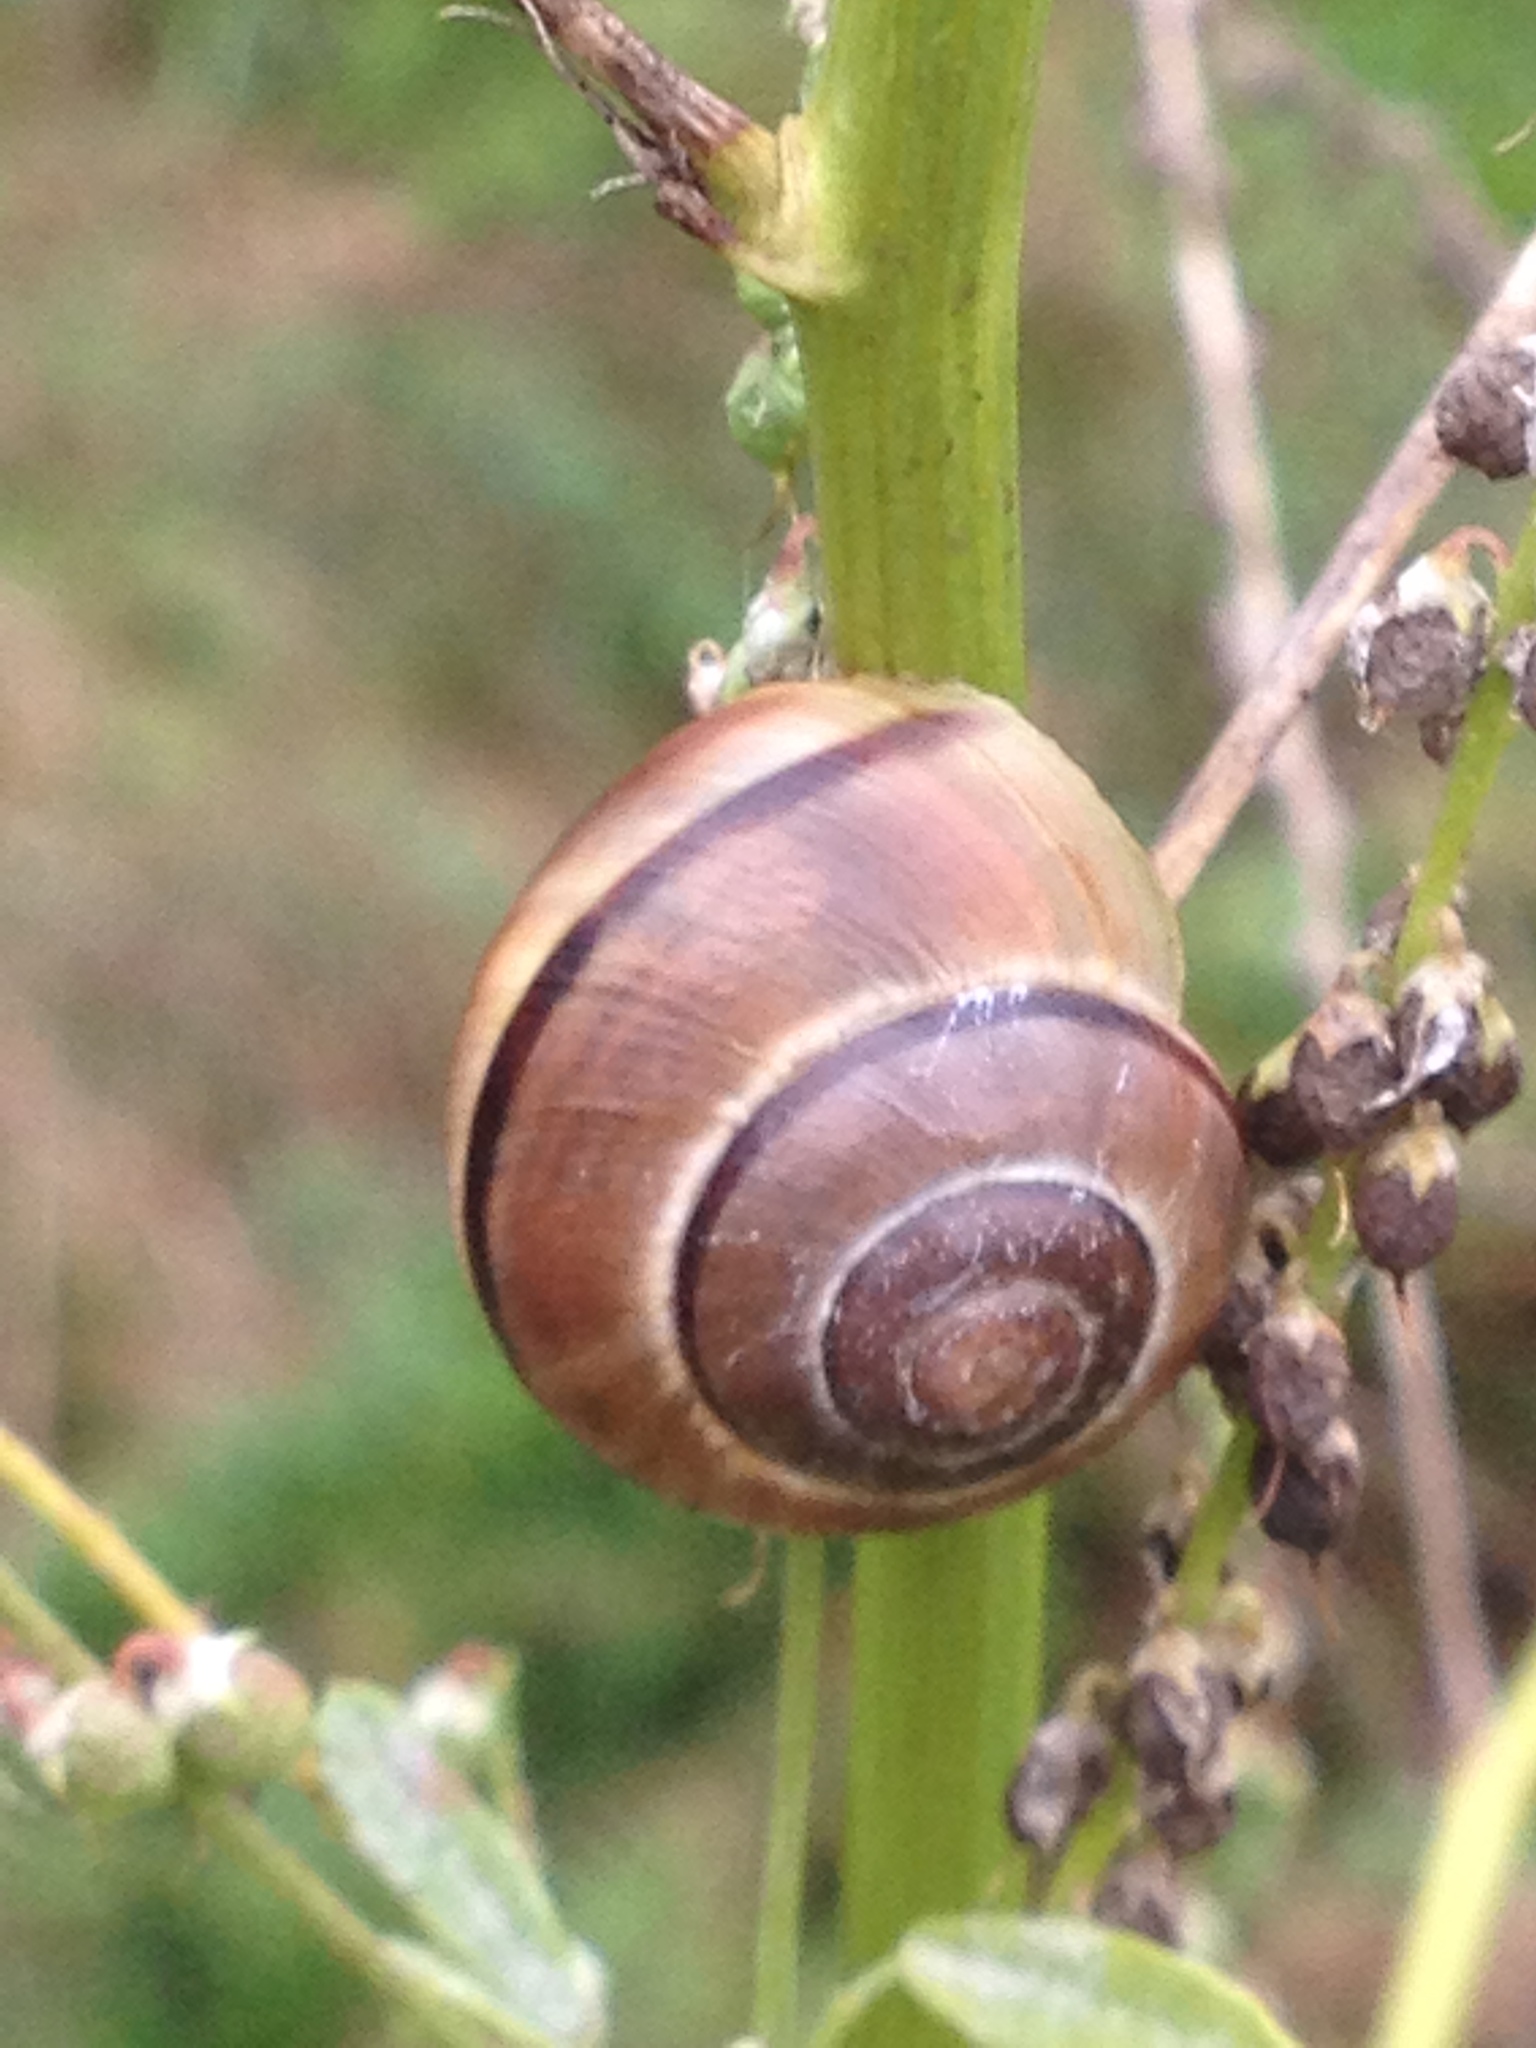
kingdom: Animalia
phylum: Mollusca
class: Gastropoda
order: Stylommatophora
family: Helicidae
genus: Cepaea
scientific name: Cepaea nemoralis
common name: Grovesnail
